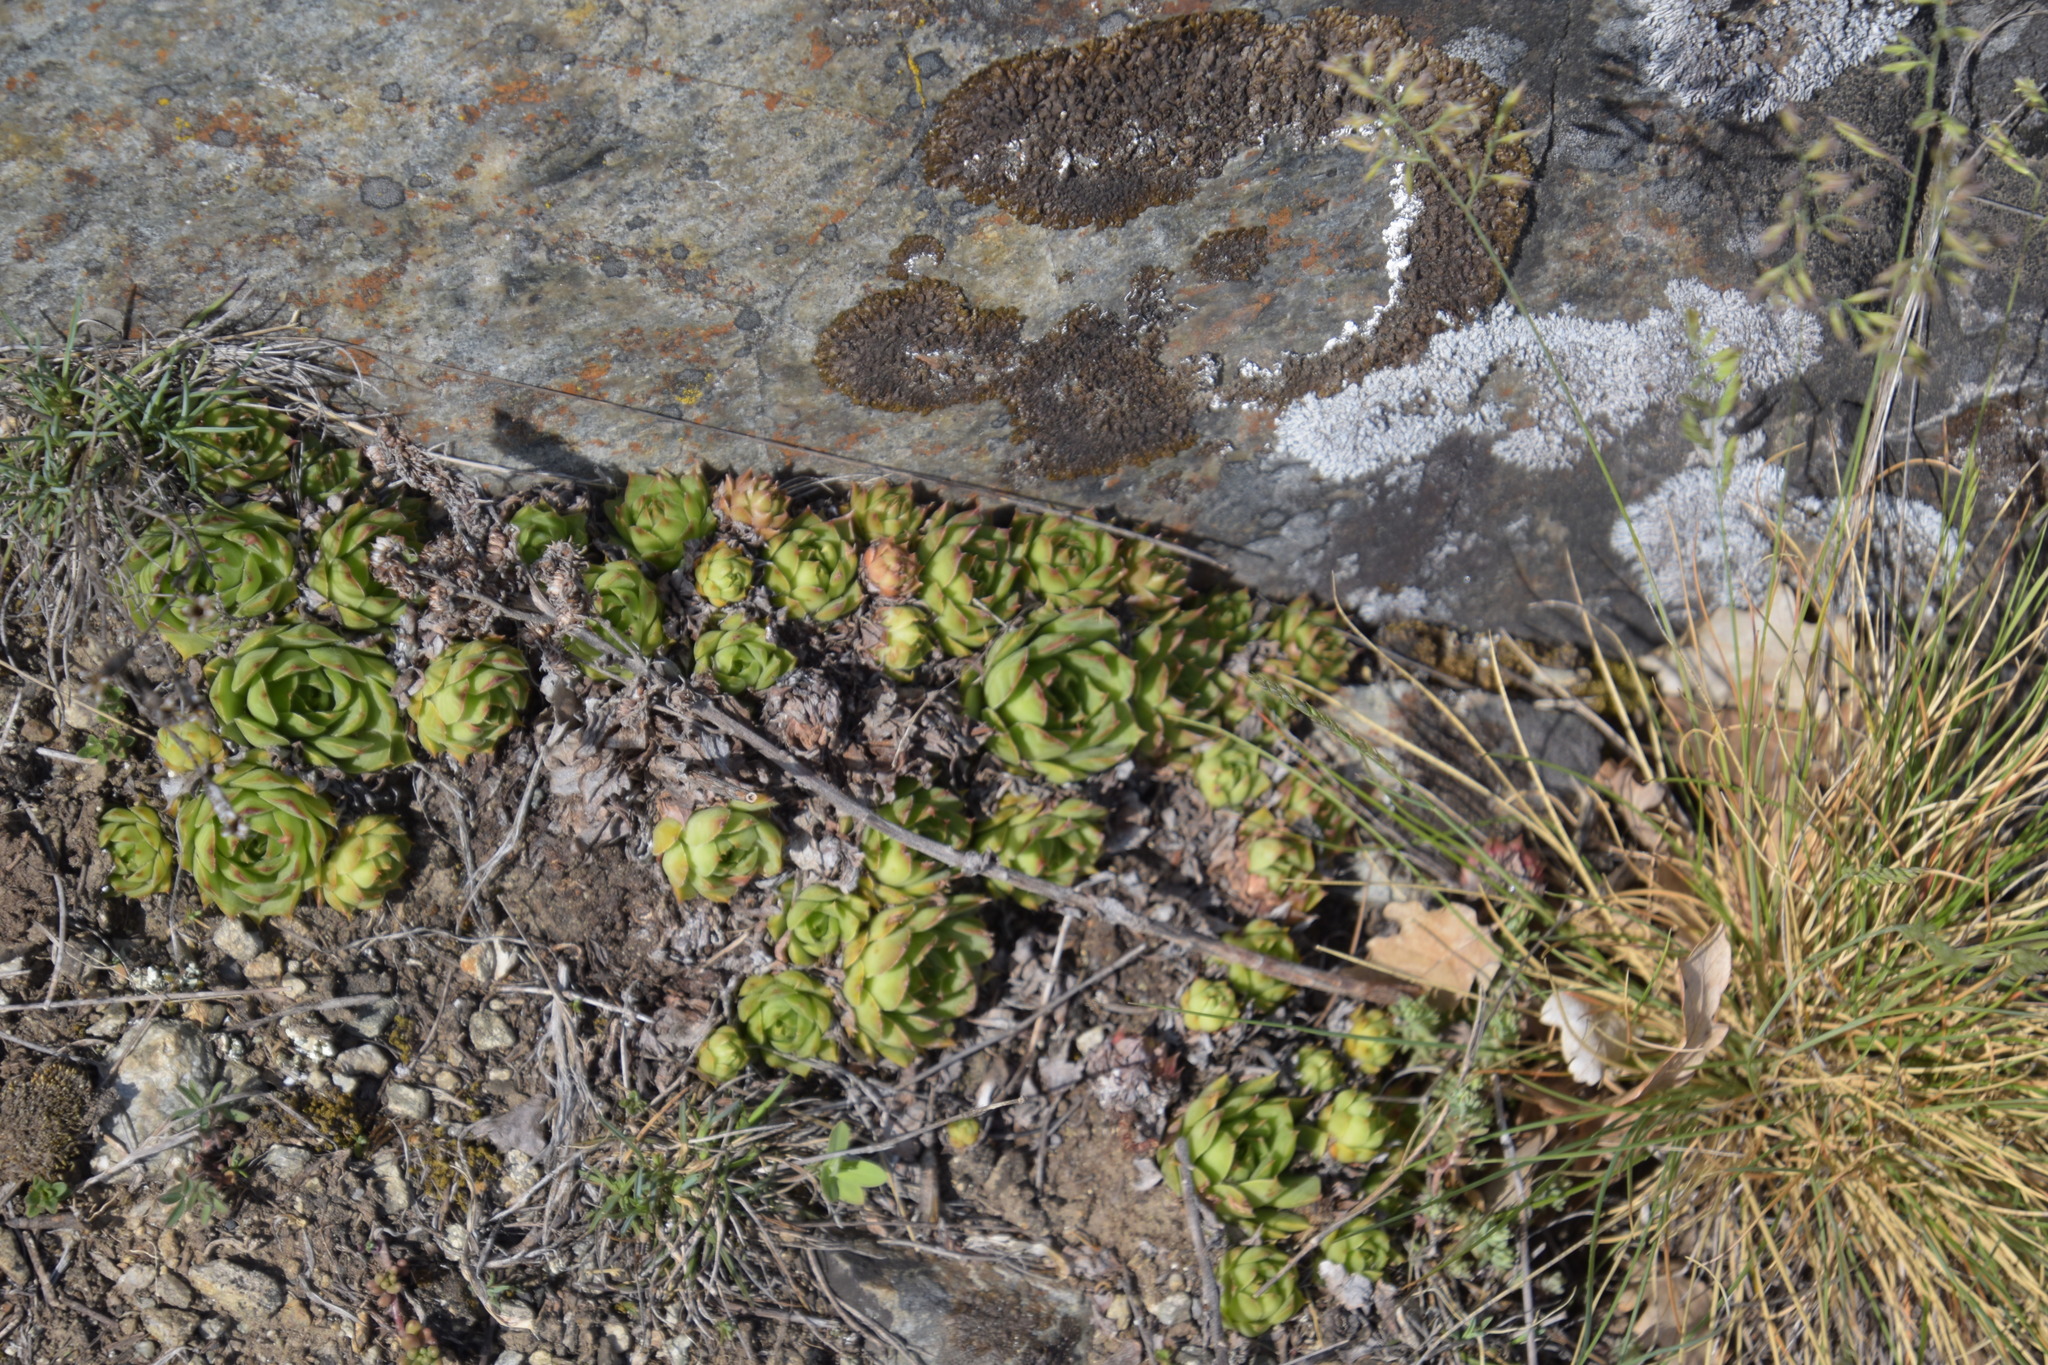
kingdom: Plantae
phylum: Tracheophyta
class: Magnoliopsida
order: Saxifragales
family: Crassulaceae
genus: Sempervivum
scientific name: Sempervivum tectorum
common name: House-leek
